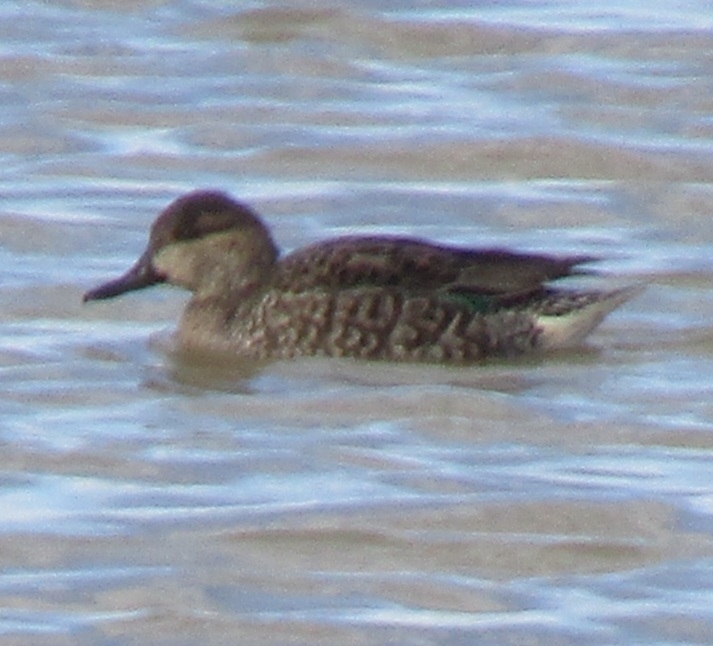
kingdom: Animalia
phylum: Chordata
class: Aves
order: Anseriformes
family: Anatidae
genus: Anas
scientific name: Anas crecca
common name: Eurasian teal
